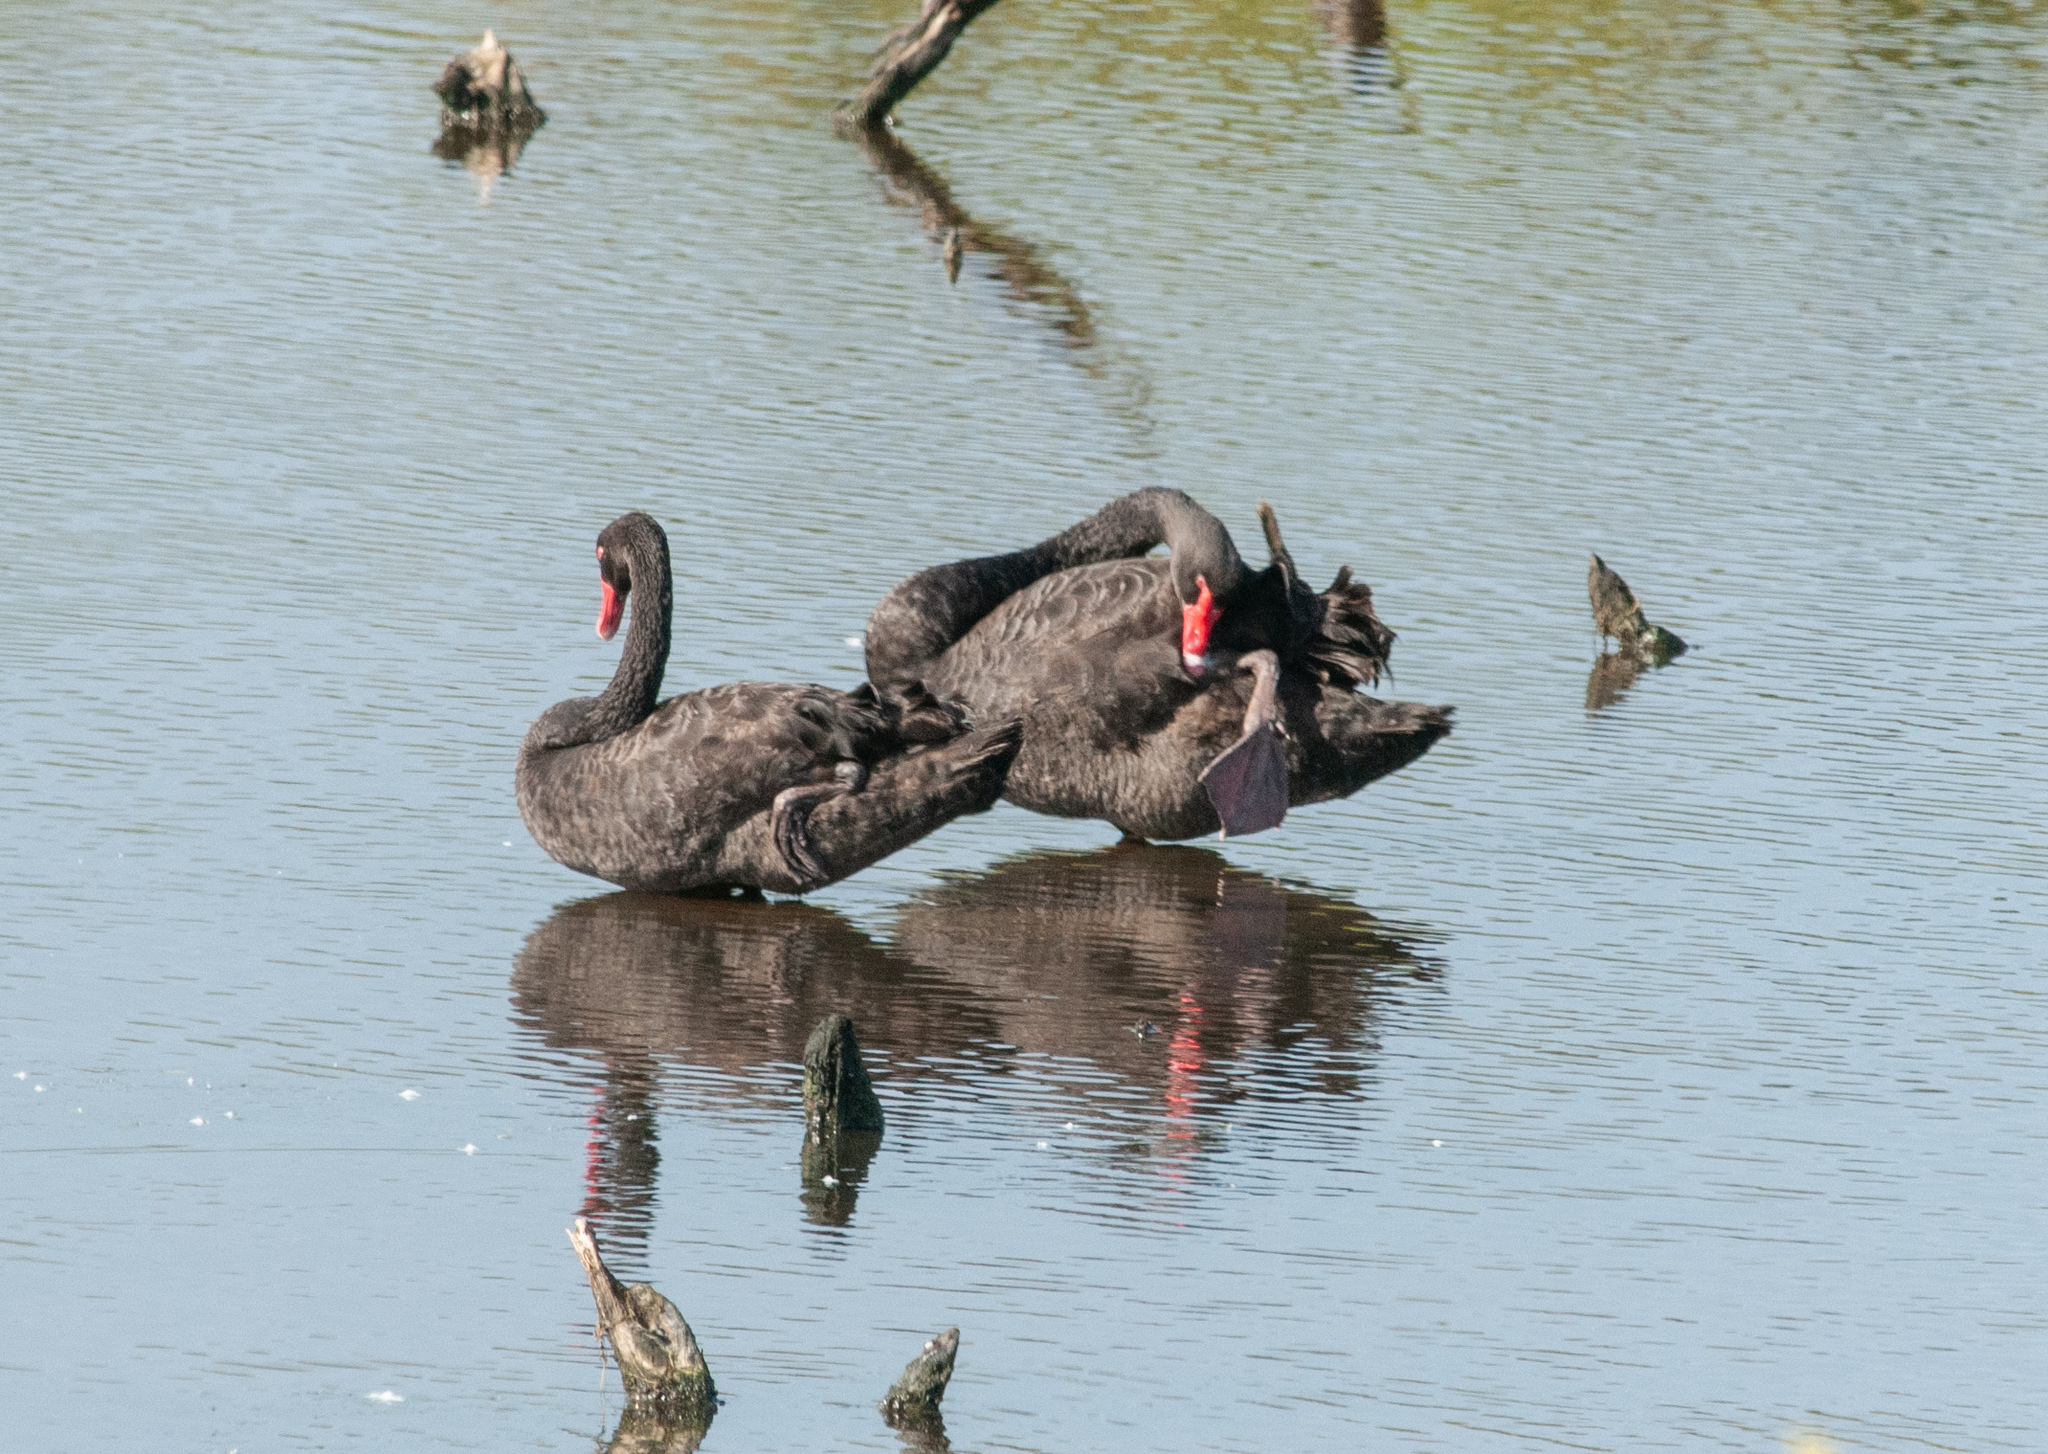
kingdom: Animalia
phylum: Chordata
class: Aves
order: Anseriformes
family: Anatidae
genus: Cygnus
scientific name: Cygnus atratus
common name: Black swan
